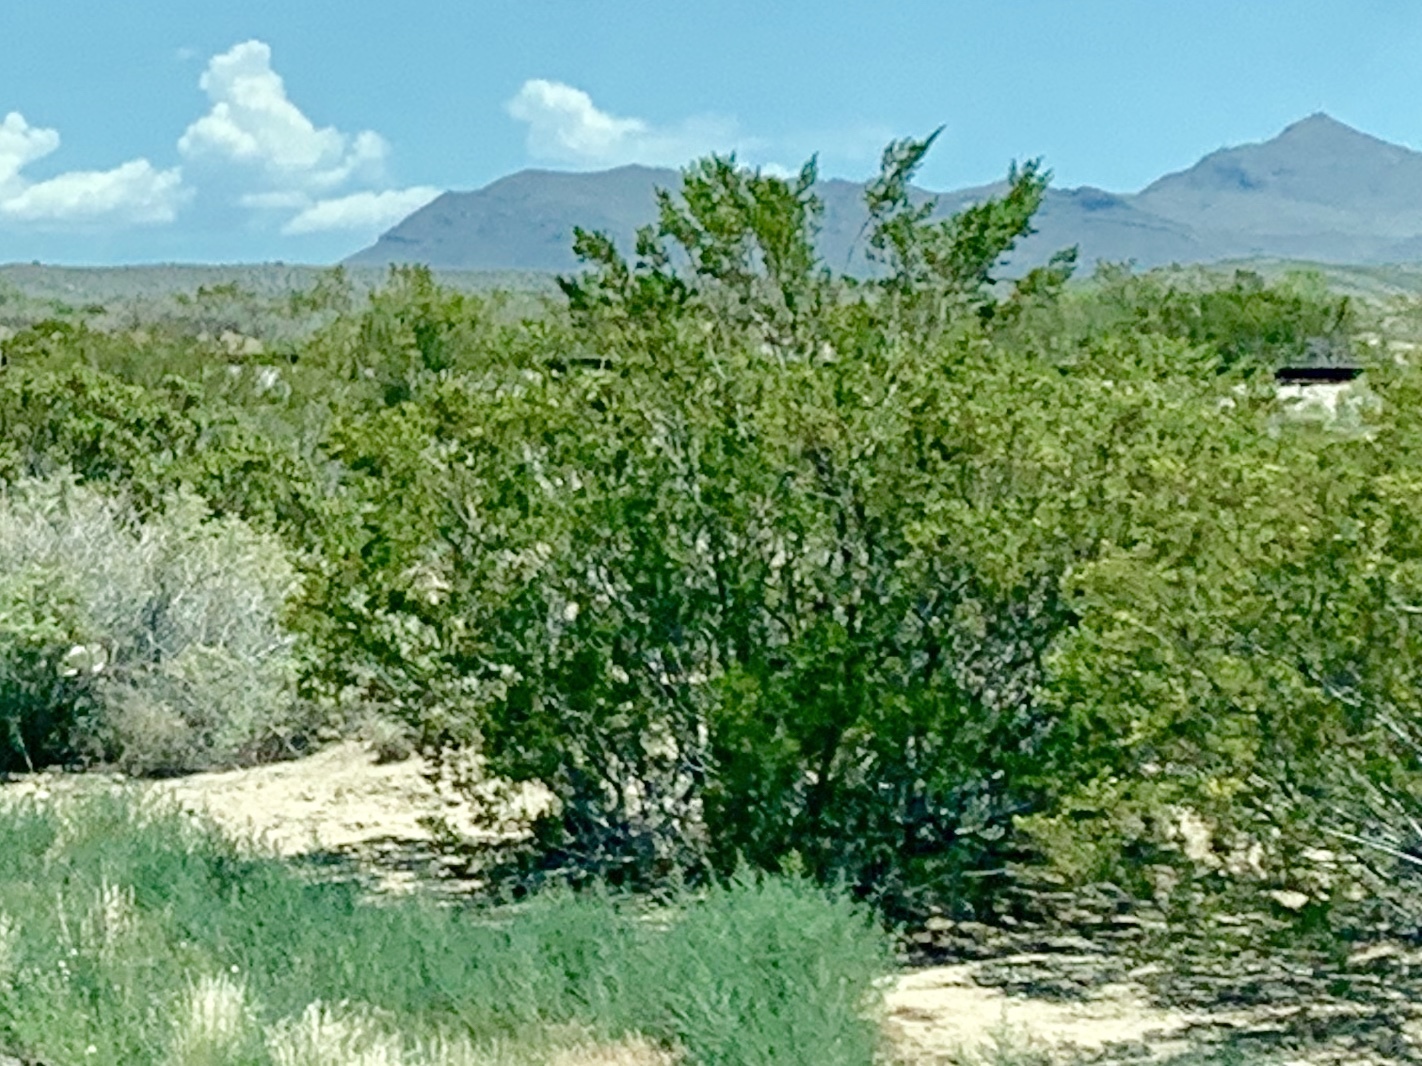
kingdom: Plantae
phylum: Tracheophyta
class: Magnoliopsida
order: Zygophyllales
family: Zygophyllaceae
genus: Larrea
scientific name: Larrea tridentata
